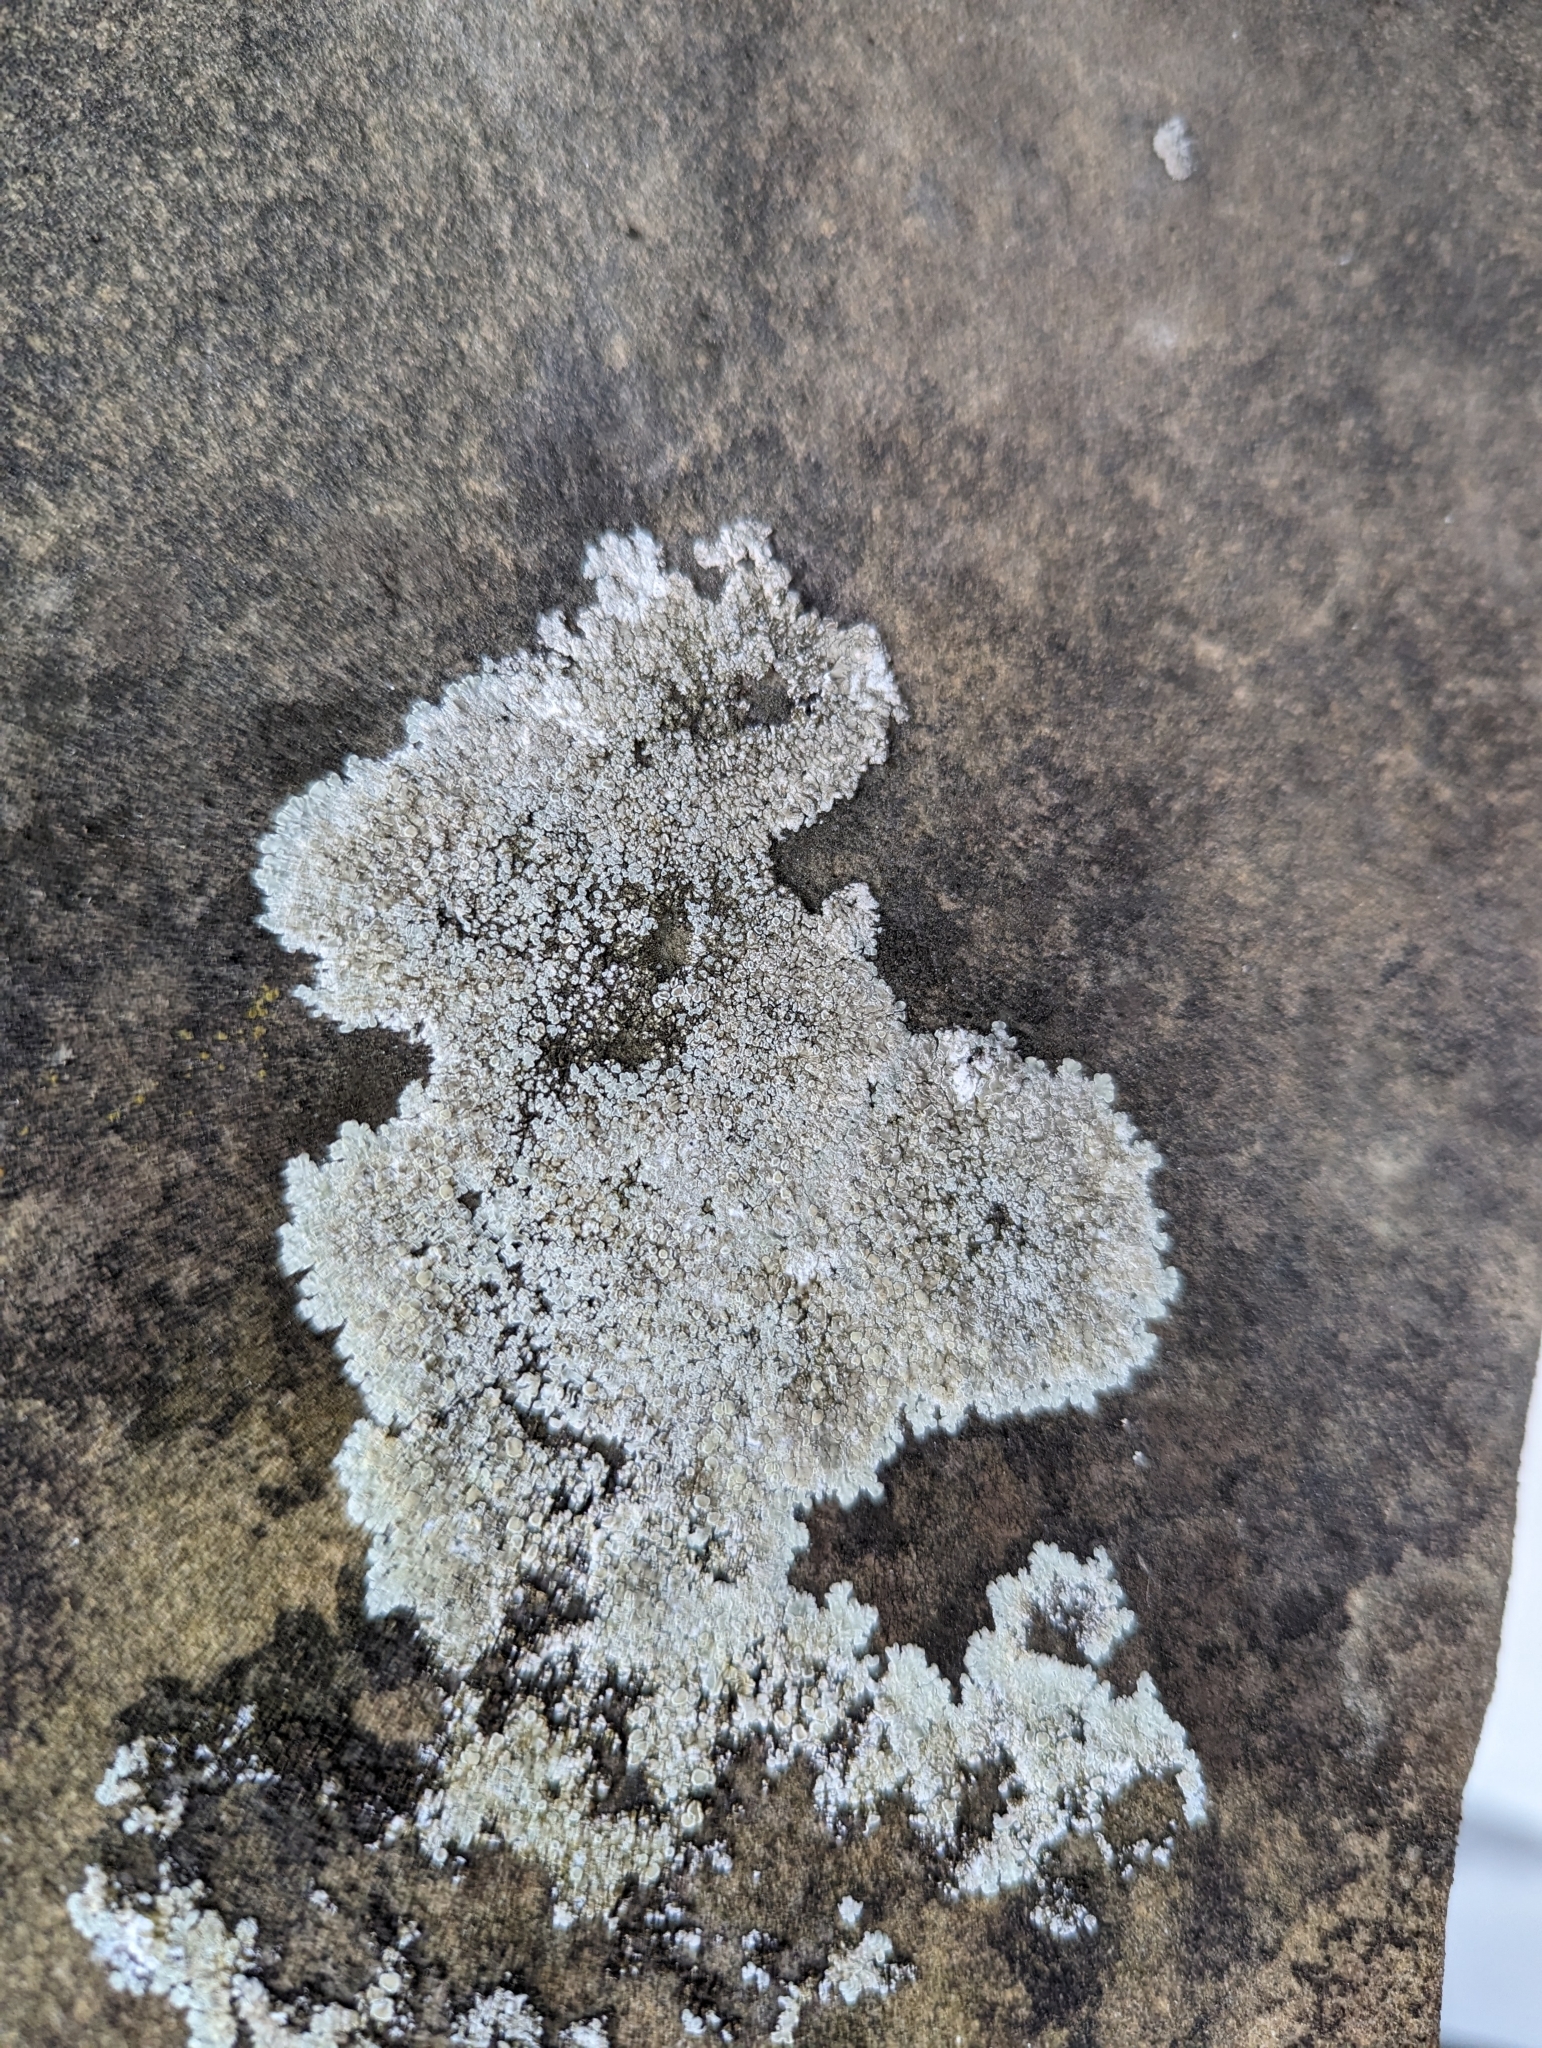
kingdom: Fungi
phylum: Ascomycota
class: Lecanoromycetes
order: Lecanorales
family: Lecanoraceae
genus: Protoparmeliopsis
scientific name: Protoparmeliopsis muralis
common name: Stonewall rim lichen
